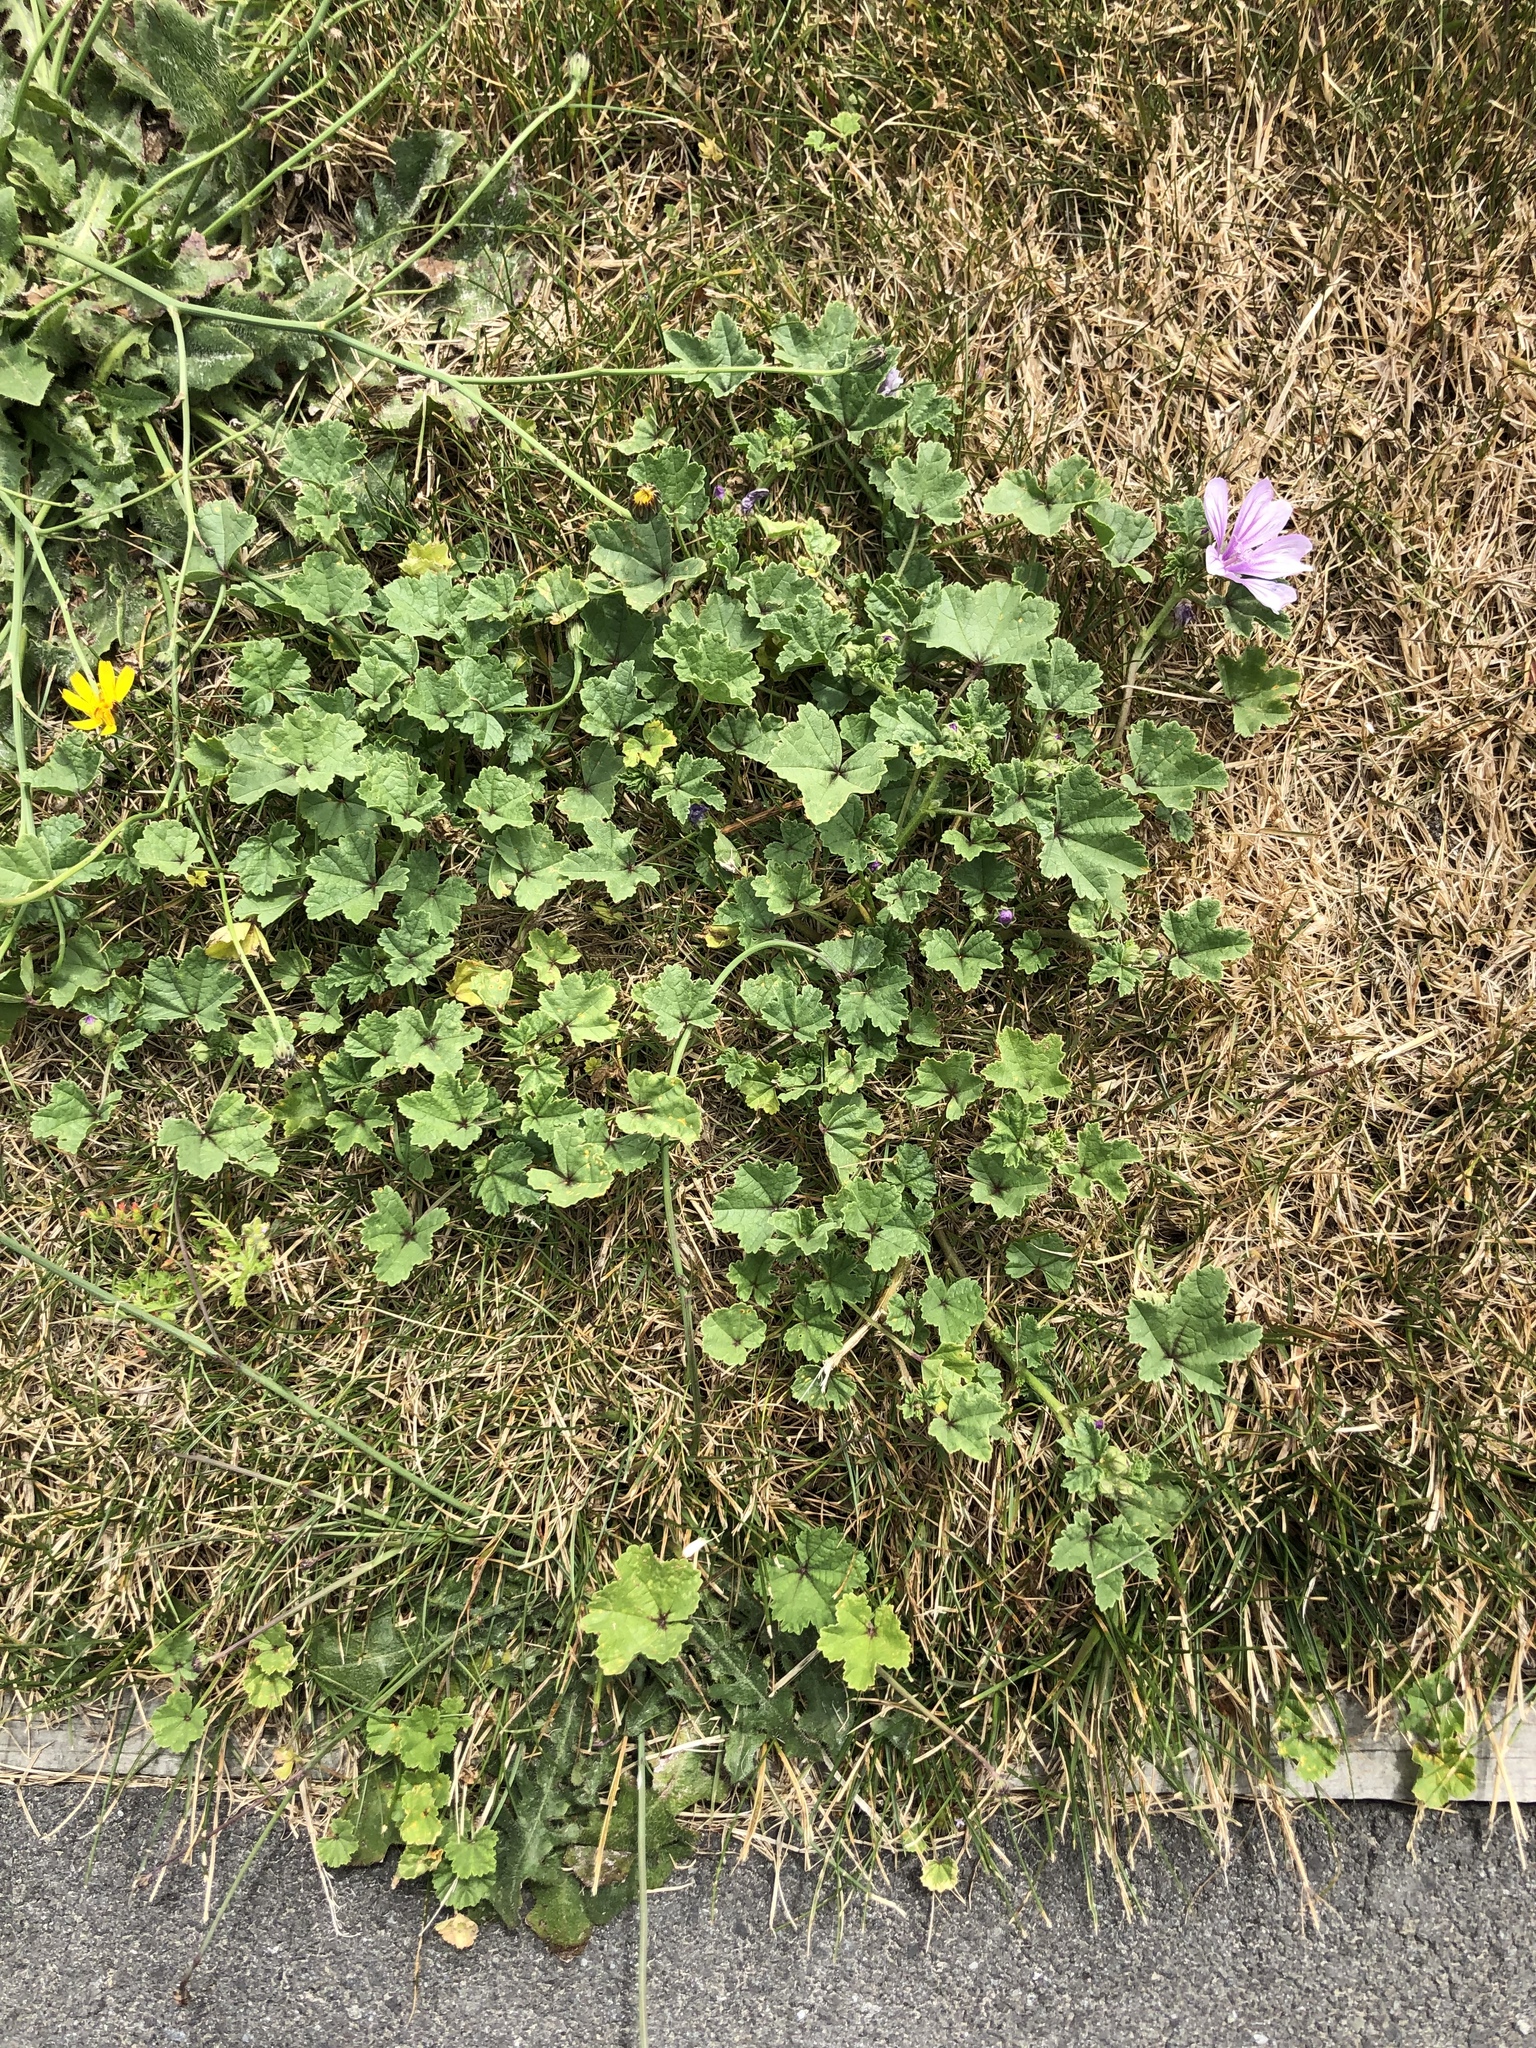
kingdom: Plantae
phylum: Tracheophyta
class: Magnoliopsida
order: Malvales
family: Malvaceae
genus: Malva
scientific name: Malva sylvestris
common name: Common mallow
